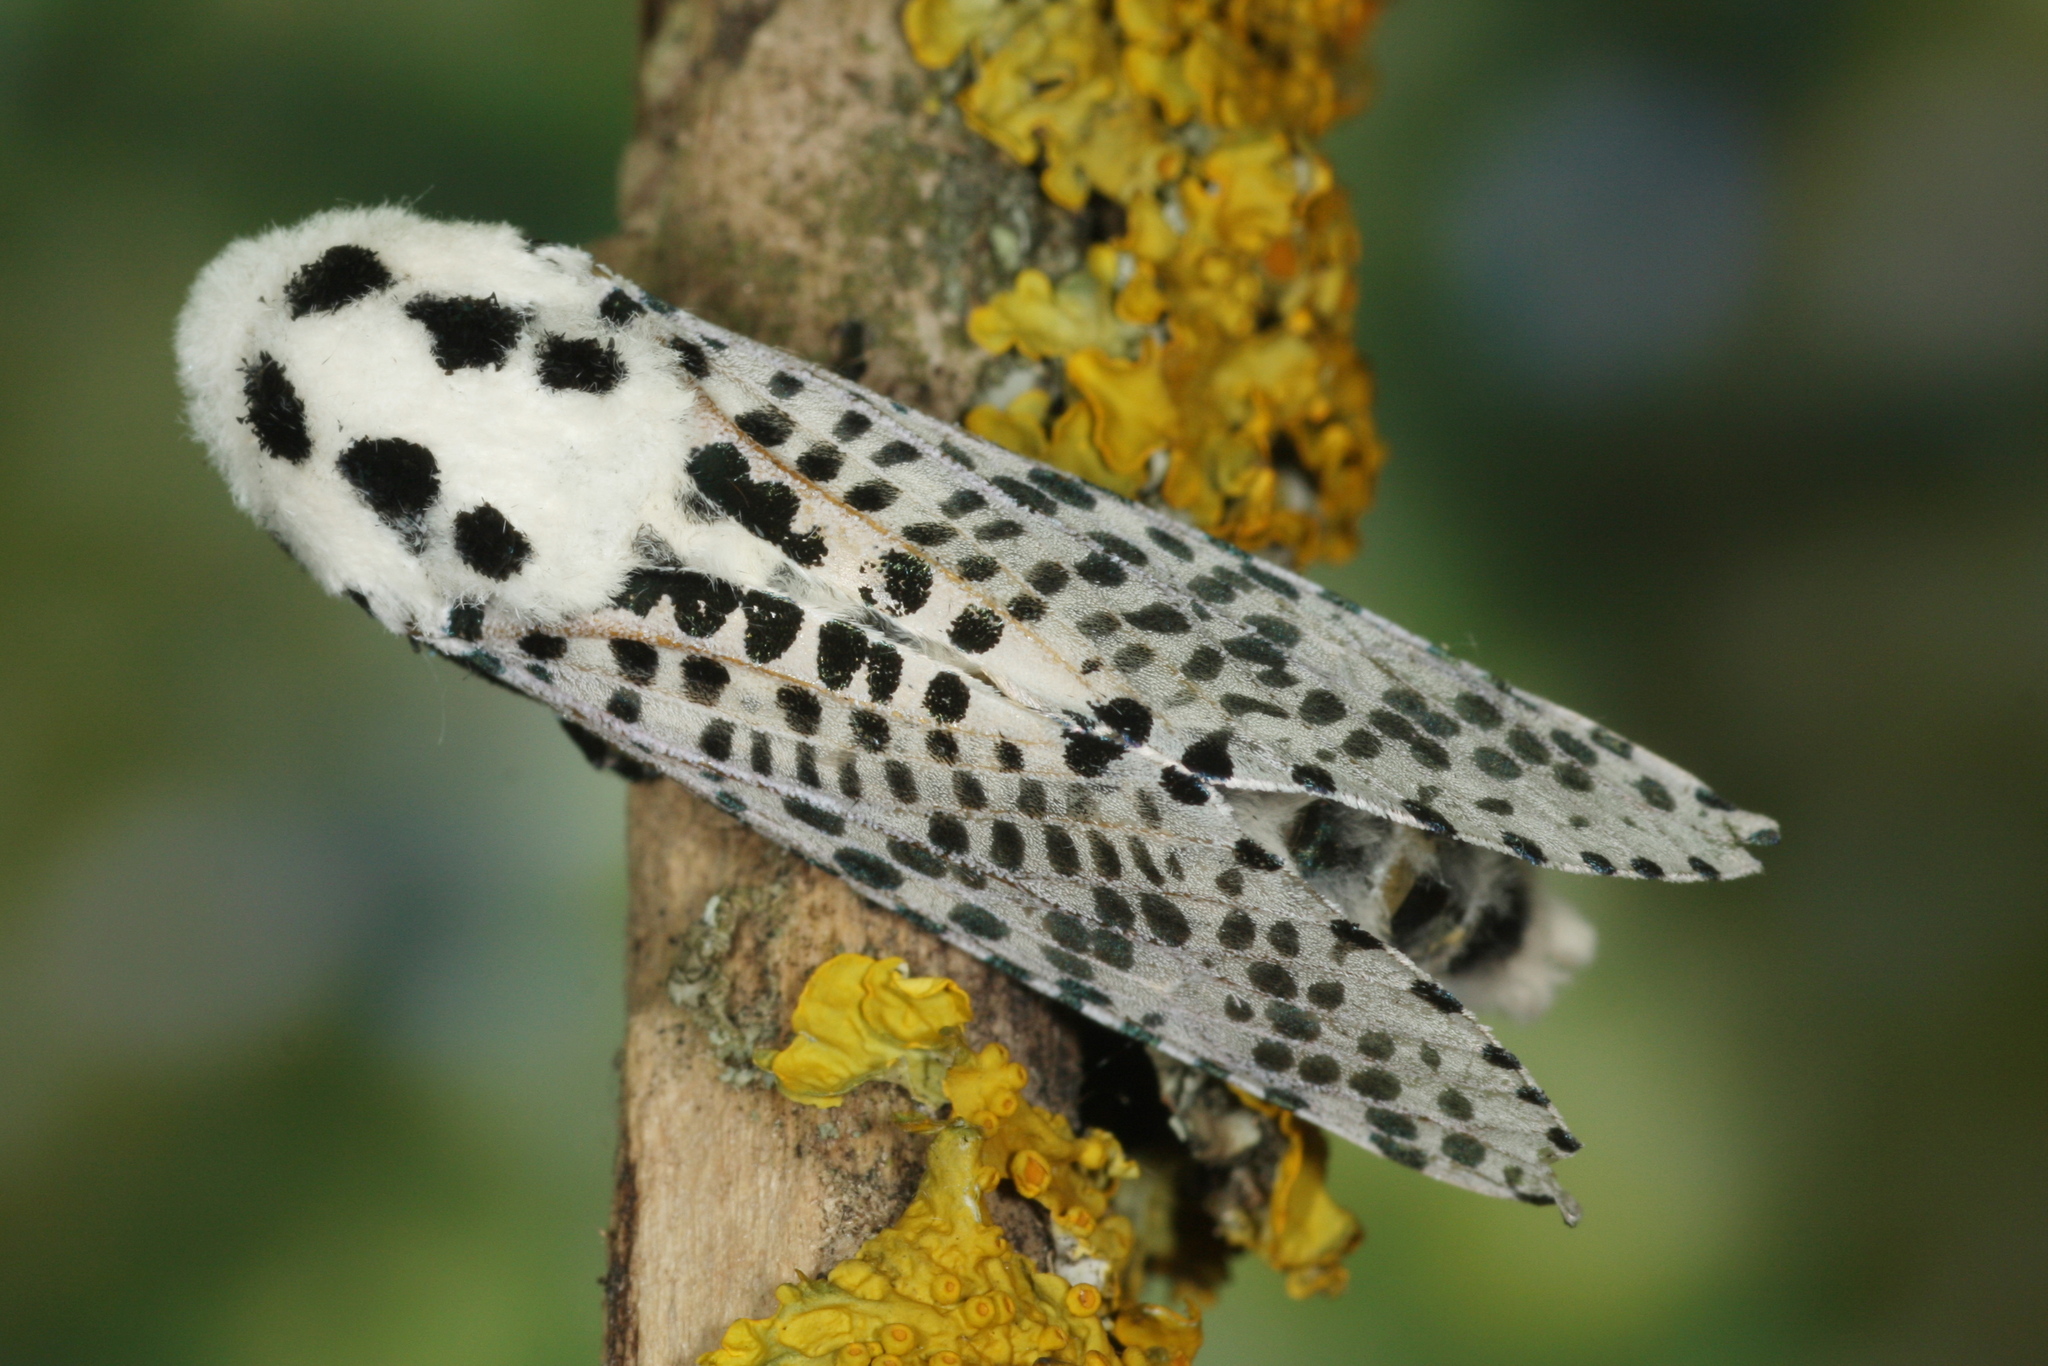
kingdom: Animalia
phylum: Arthropoda
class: Insecta
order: Lepidoptera
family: Cossidae
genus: Zeuzera
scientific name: Zeuzera pyrina
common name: Leopard moth
